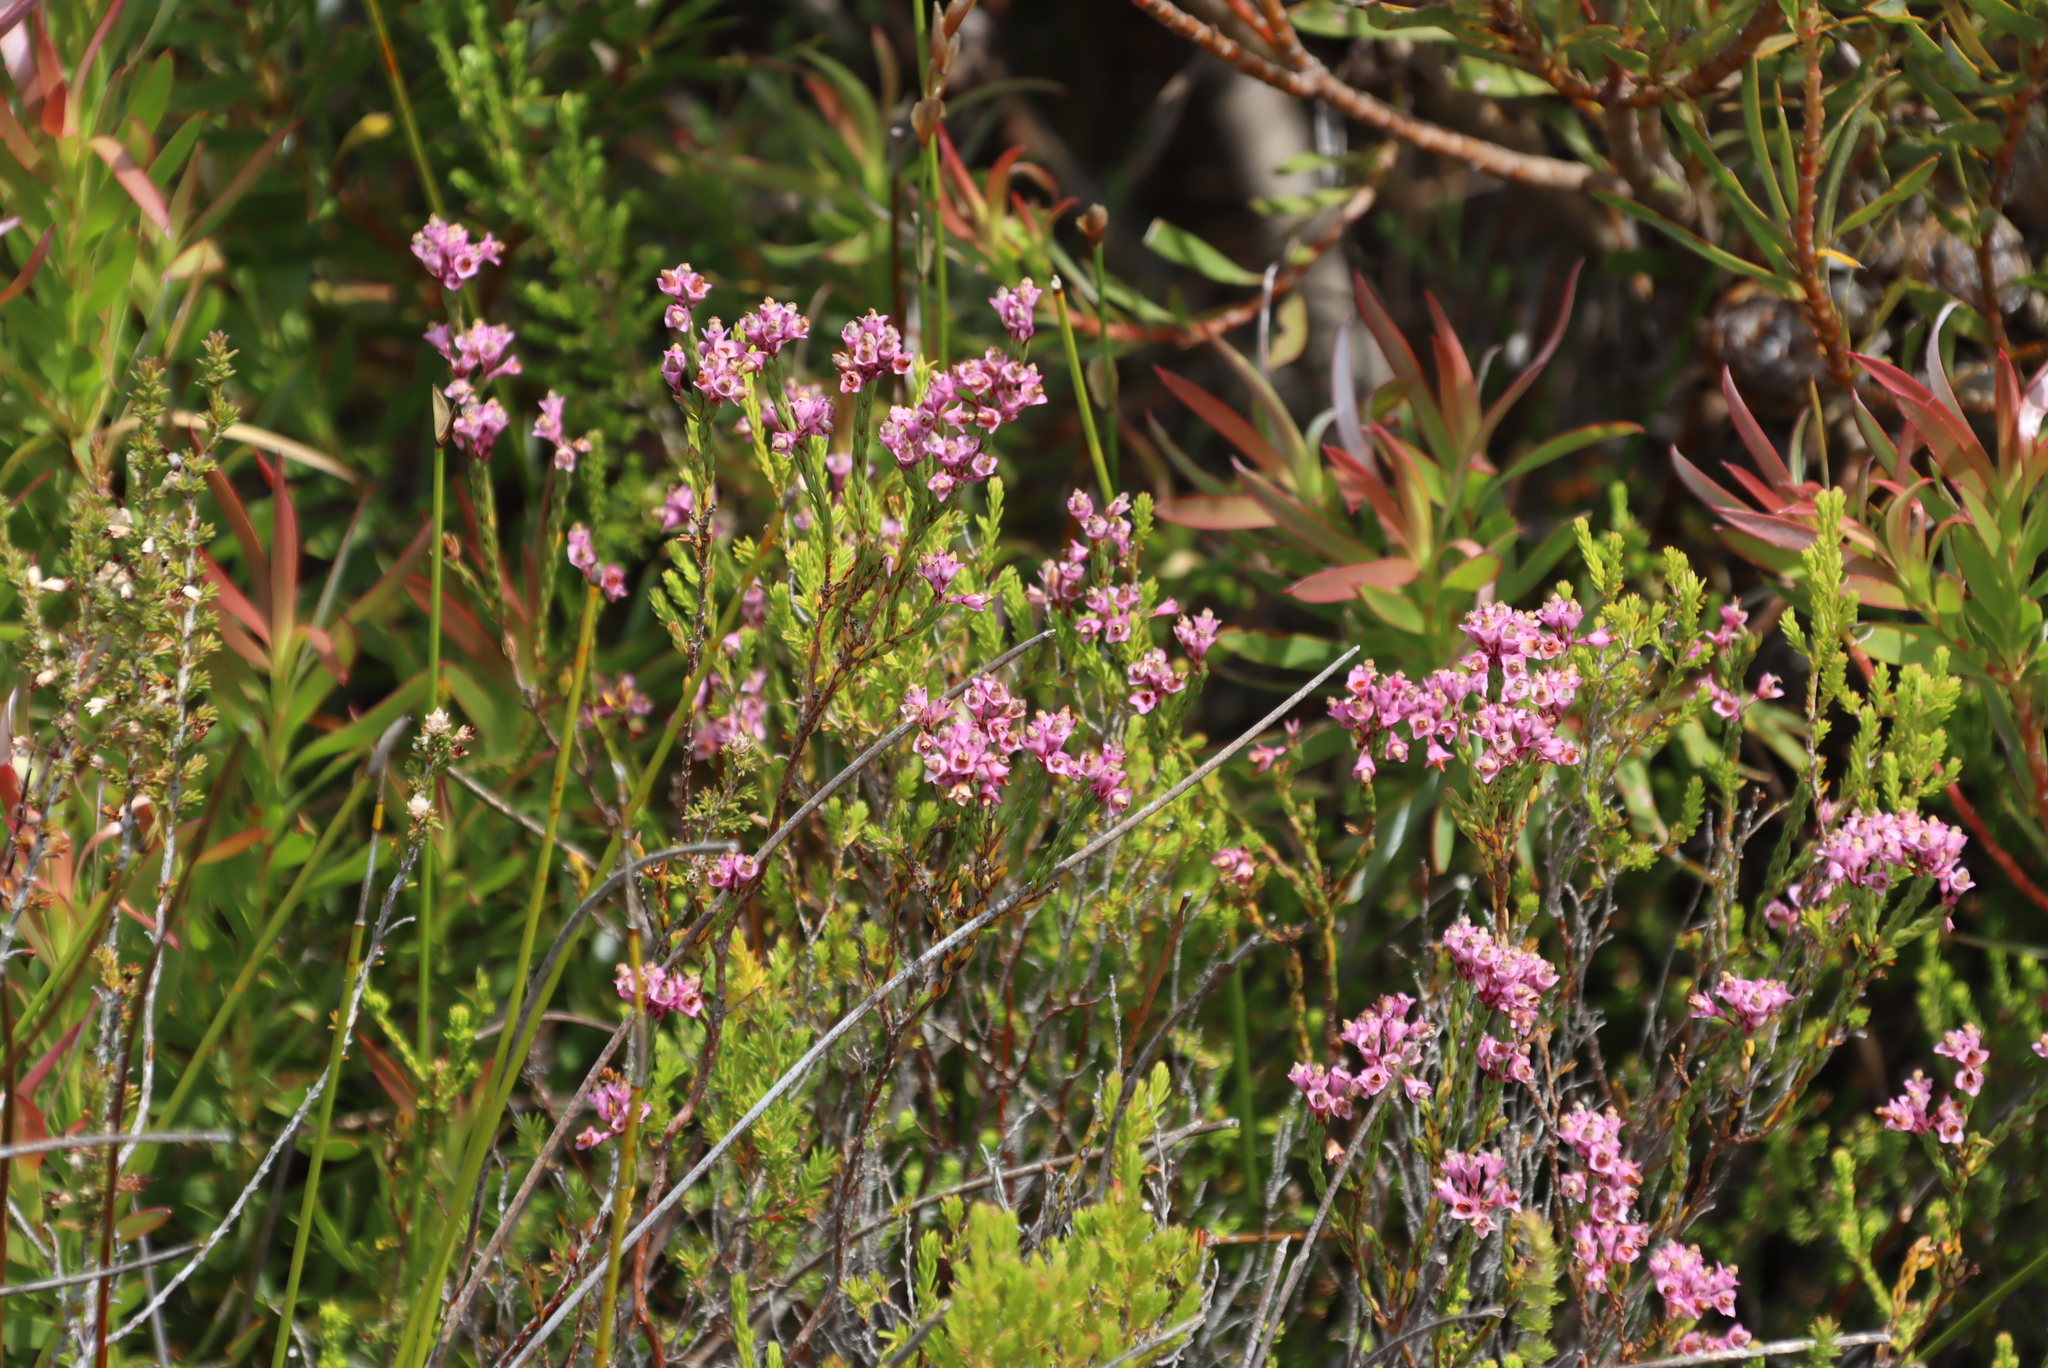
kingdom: Plantae
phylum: Tracheophyta
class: Magnoliopsida
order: Ericales
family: Ericaceae
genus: Erica
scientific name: Erica corifolia
